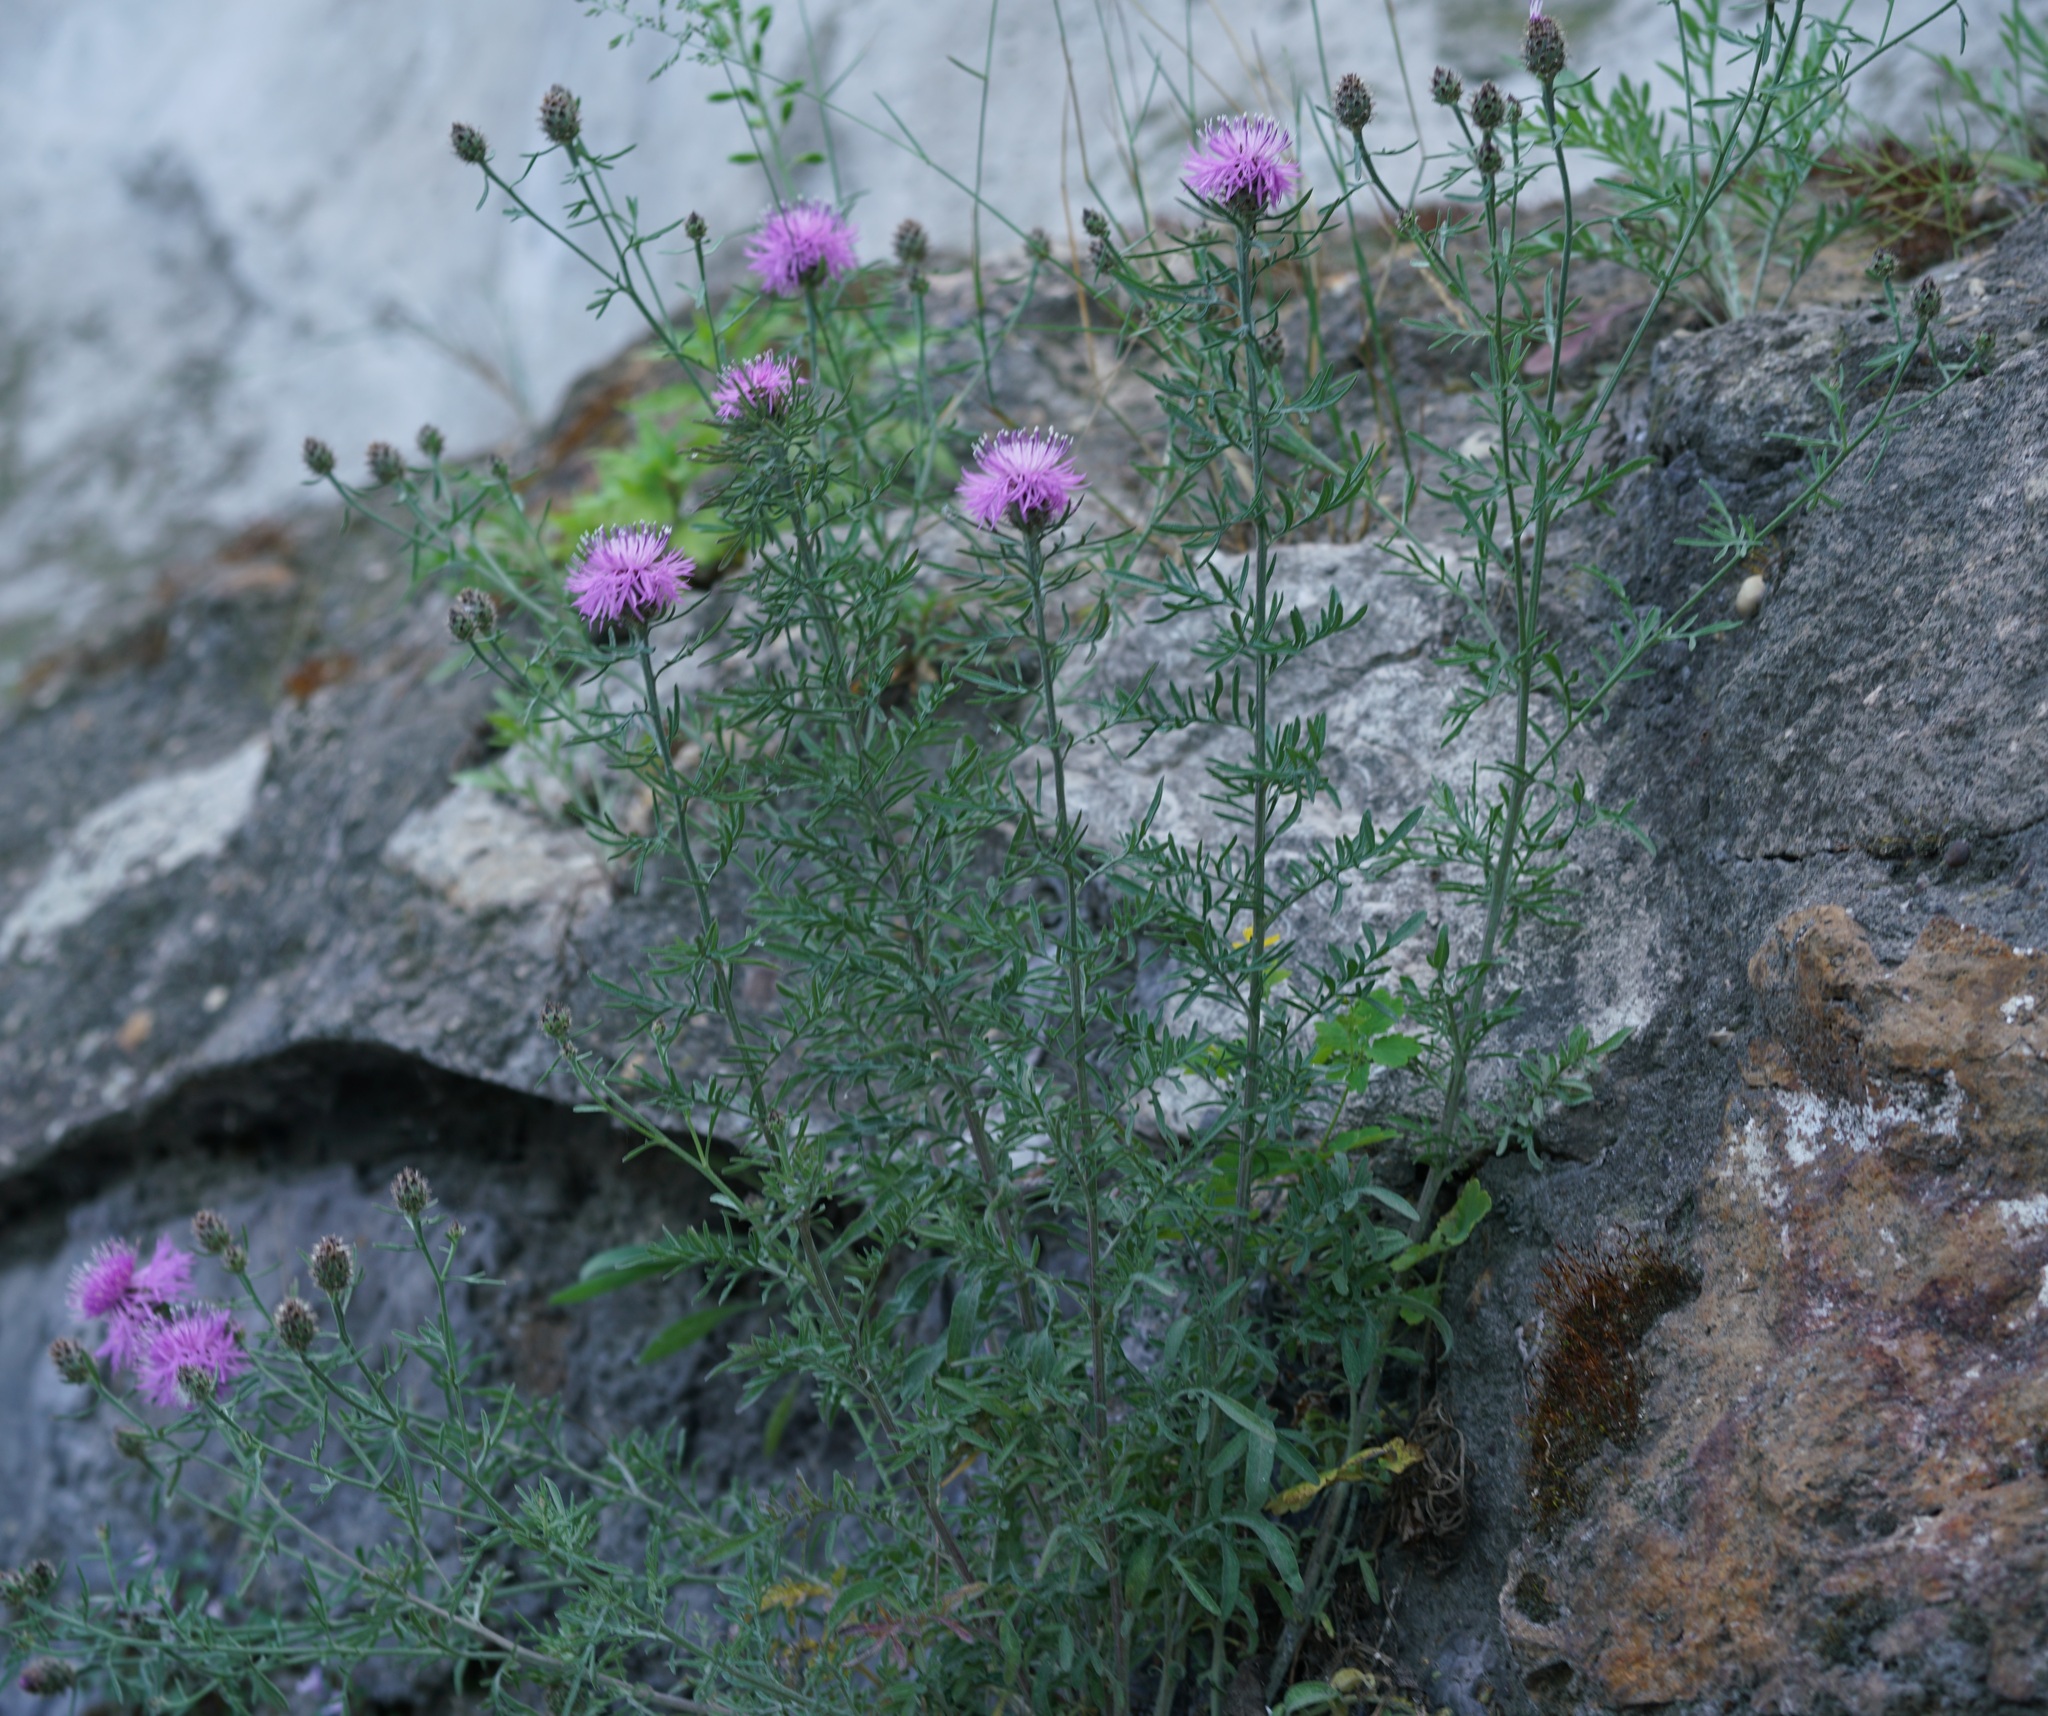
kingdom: Plantae
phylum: Tracheophyta
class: Magnoliopsida
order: Asterales
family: Asteraceae
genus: Centaurea
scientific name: Centaurea stoebe
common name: Spotted knapweed
